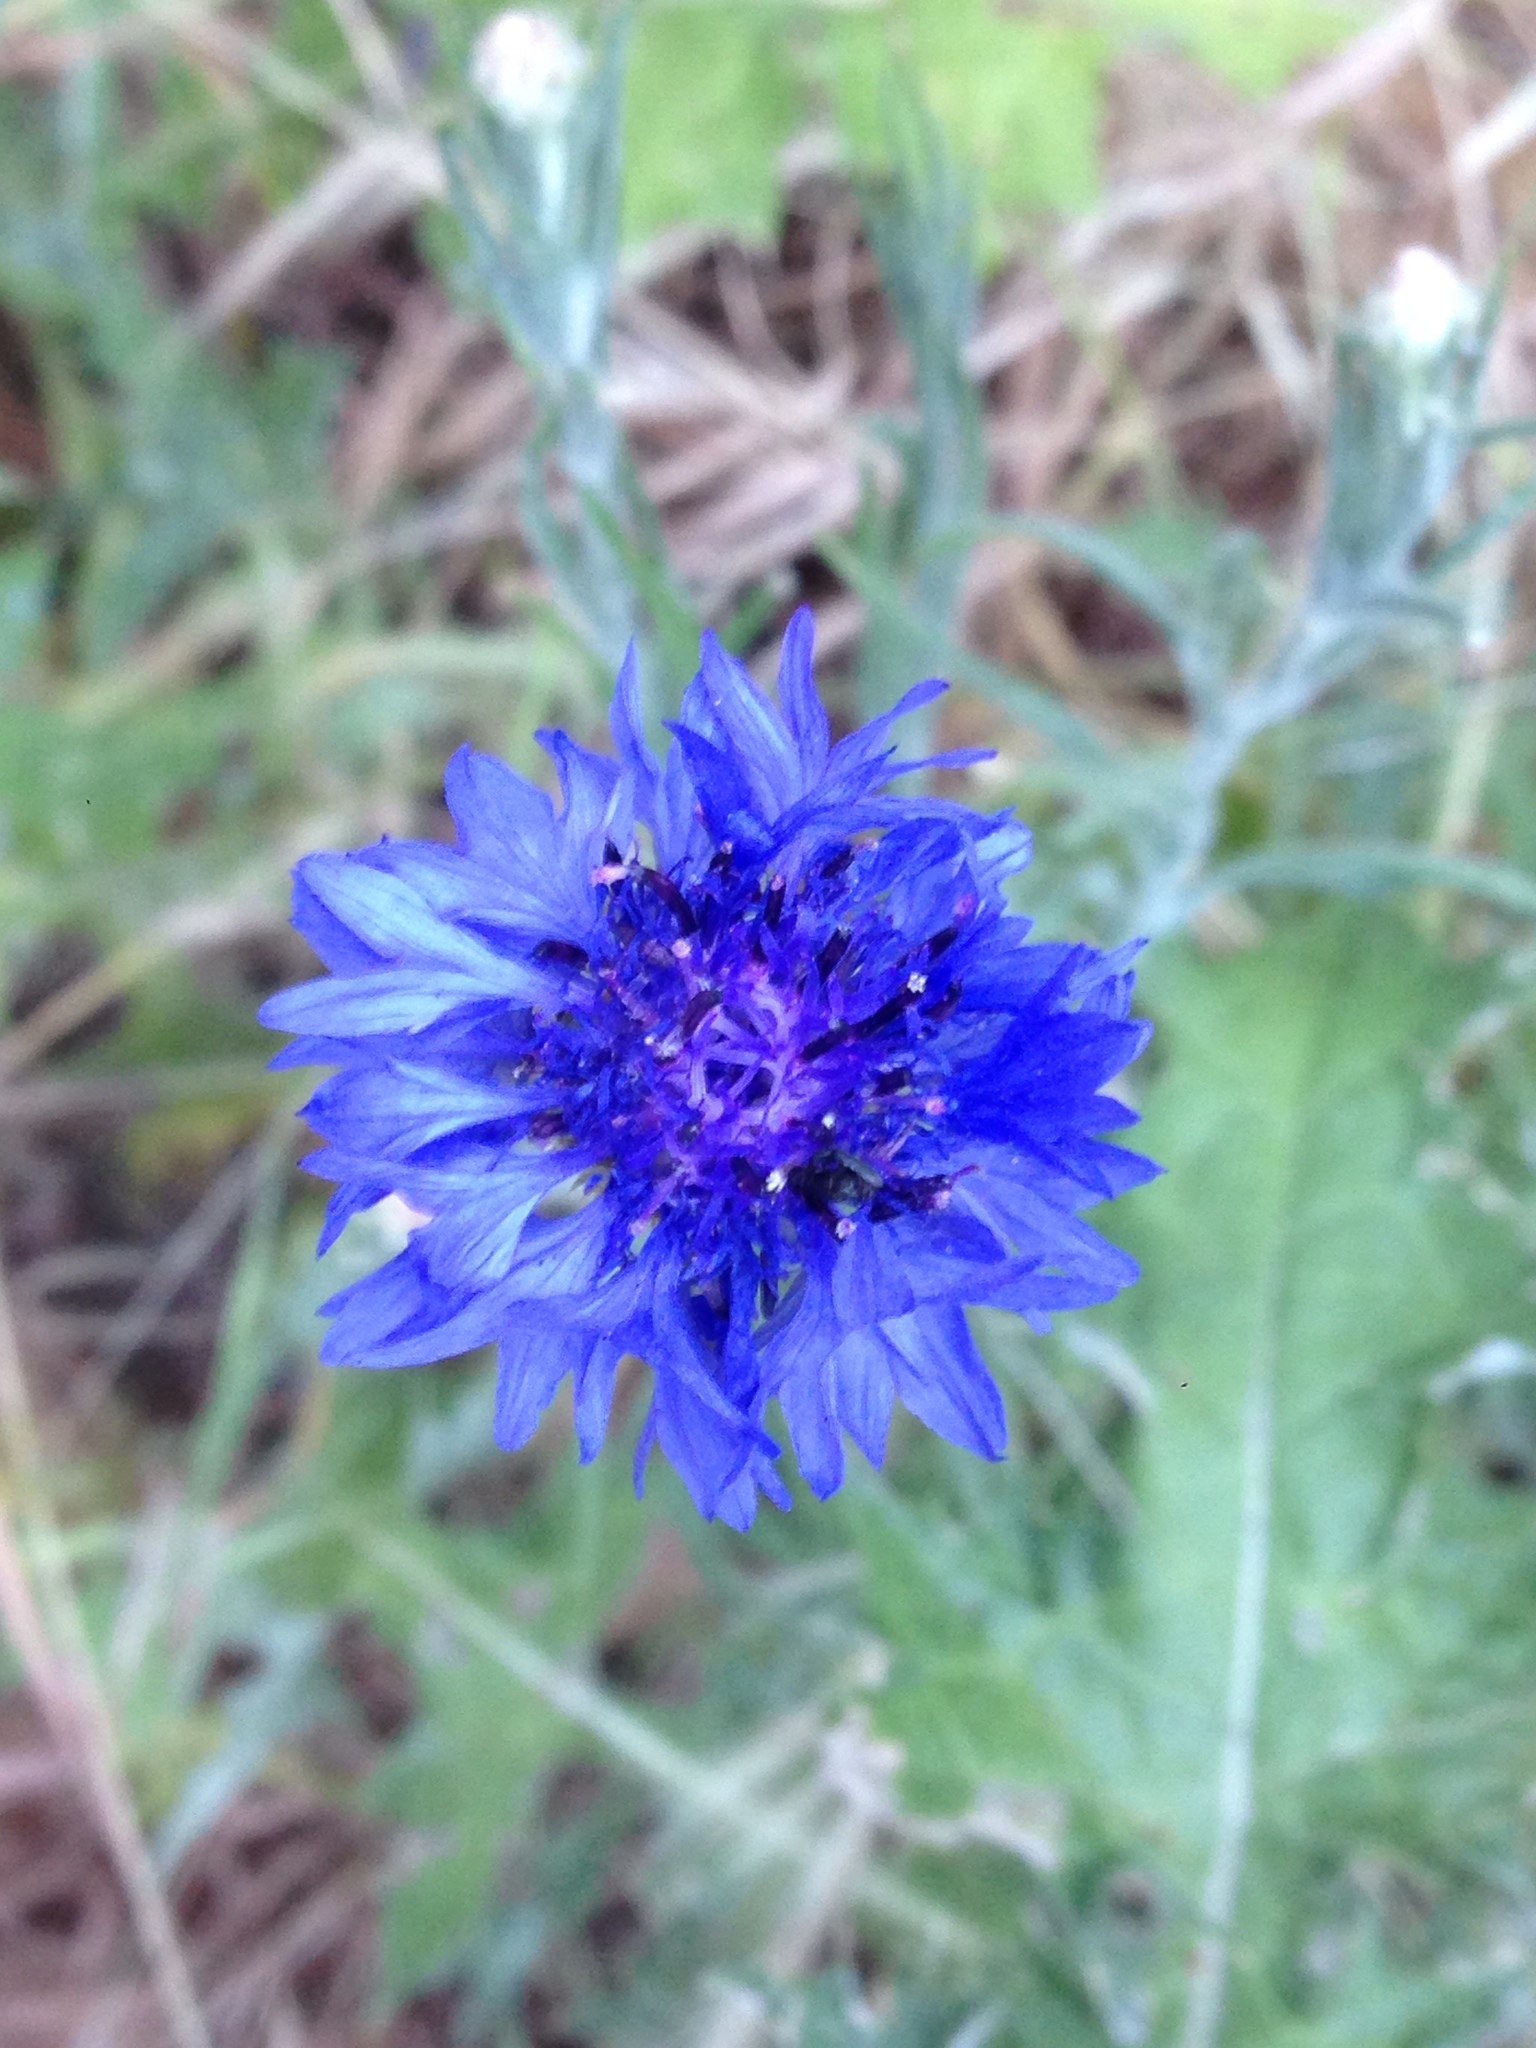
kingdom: Plantae
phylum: Tracheophyta
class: Magnoliopsida
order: Asterales
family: Asteraceae
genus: Centaurea
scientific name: Centaurea cyanus
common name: Cornflower
